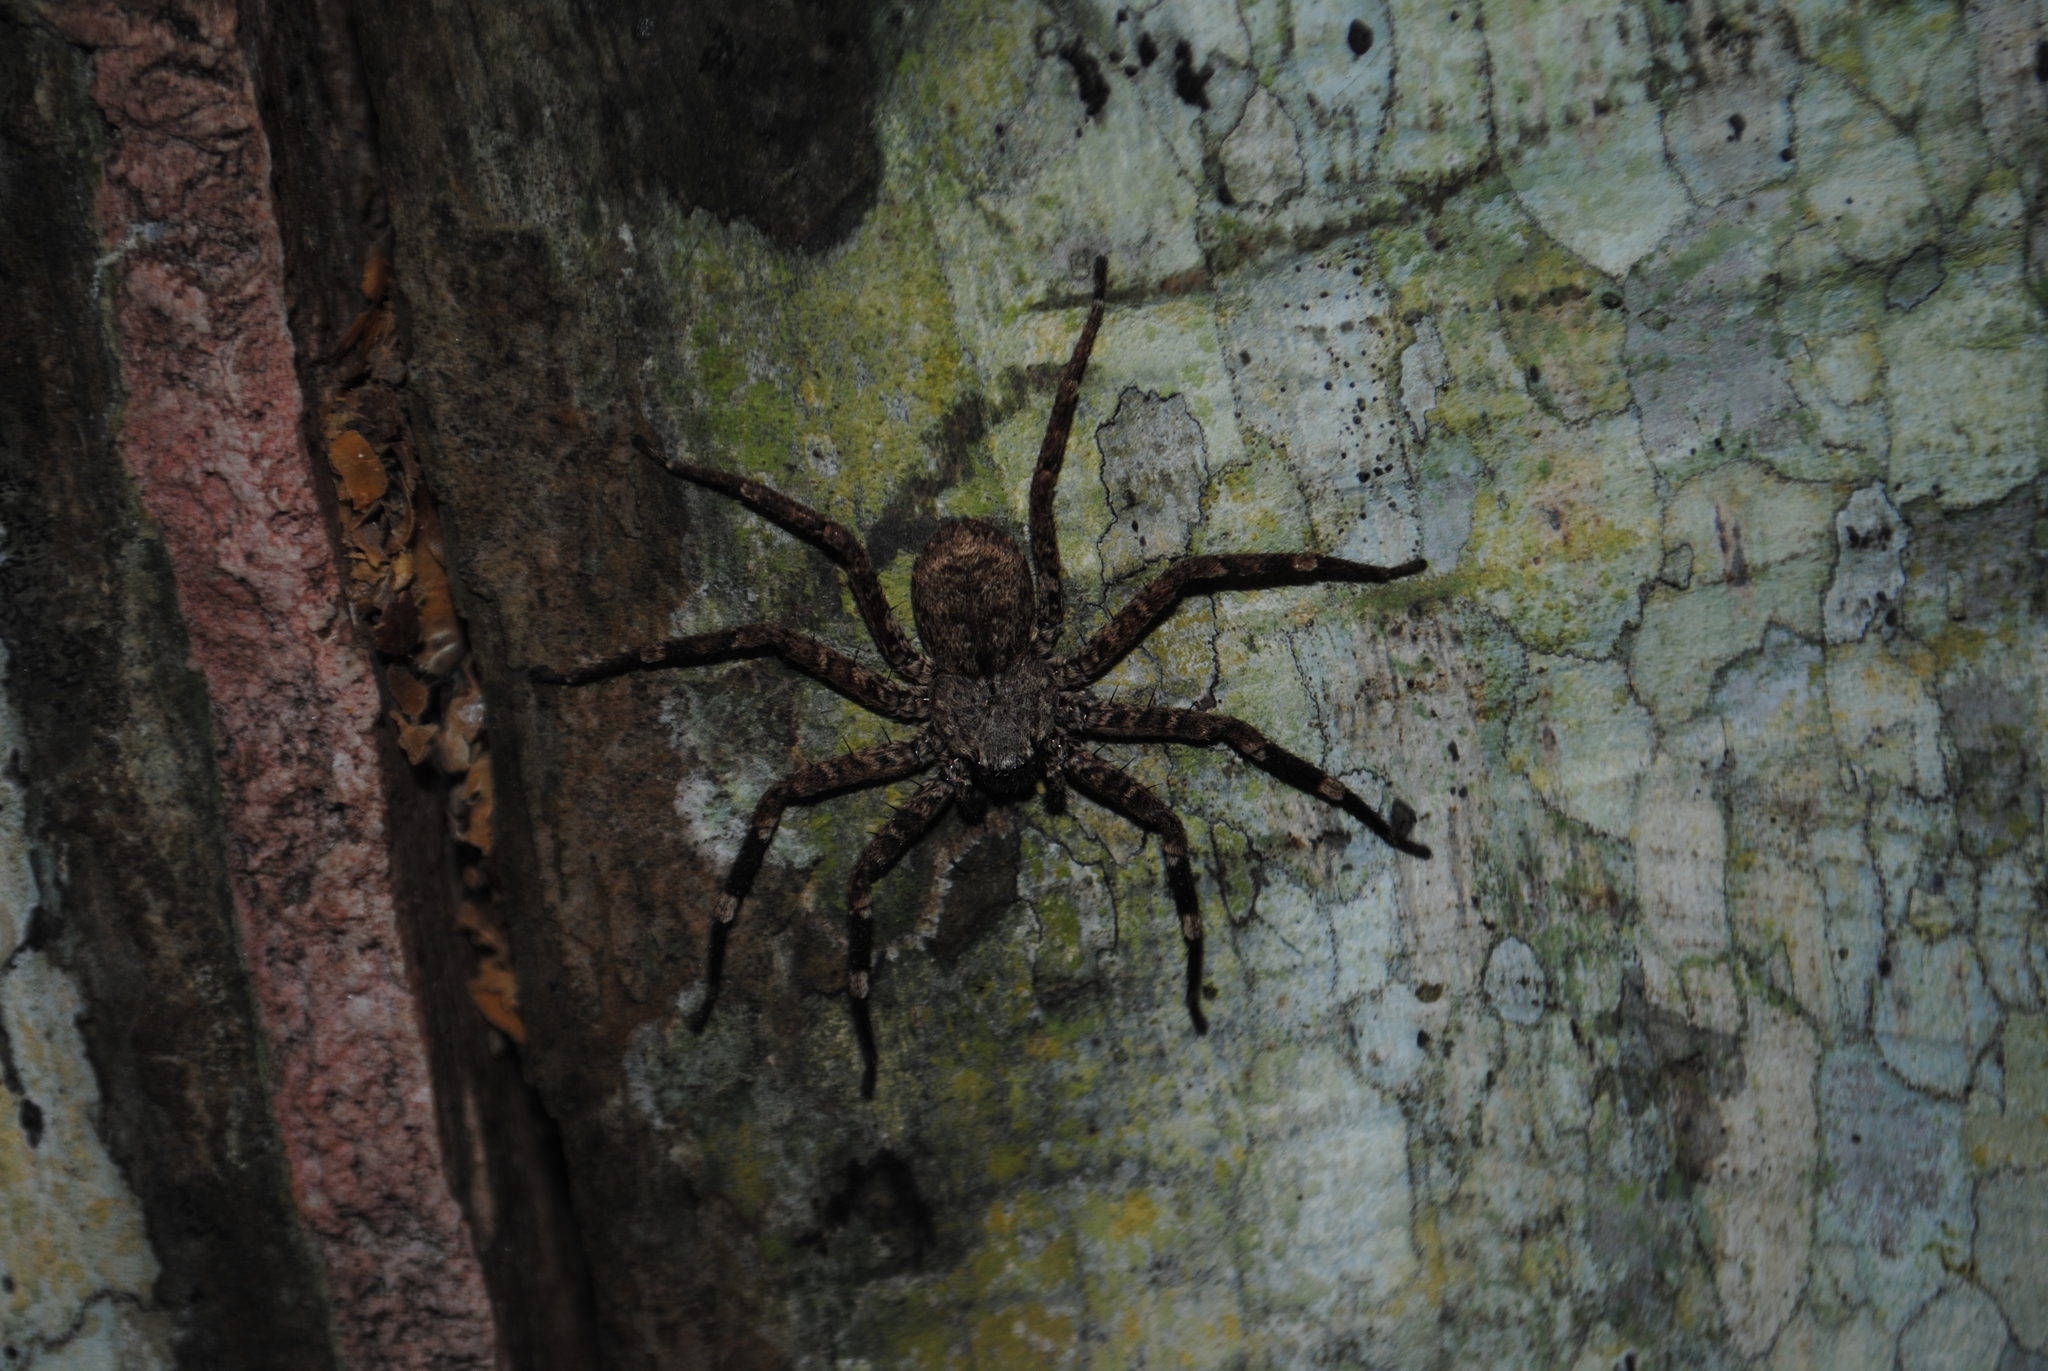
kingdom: Animalia
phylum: Arthropoda
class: Arachnida
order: Araneae
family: Selenopidae
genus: Selenops
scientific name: Selenops mexicanus
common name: Wall crab spiders
